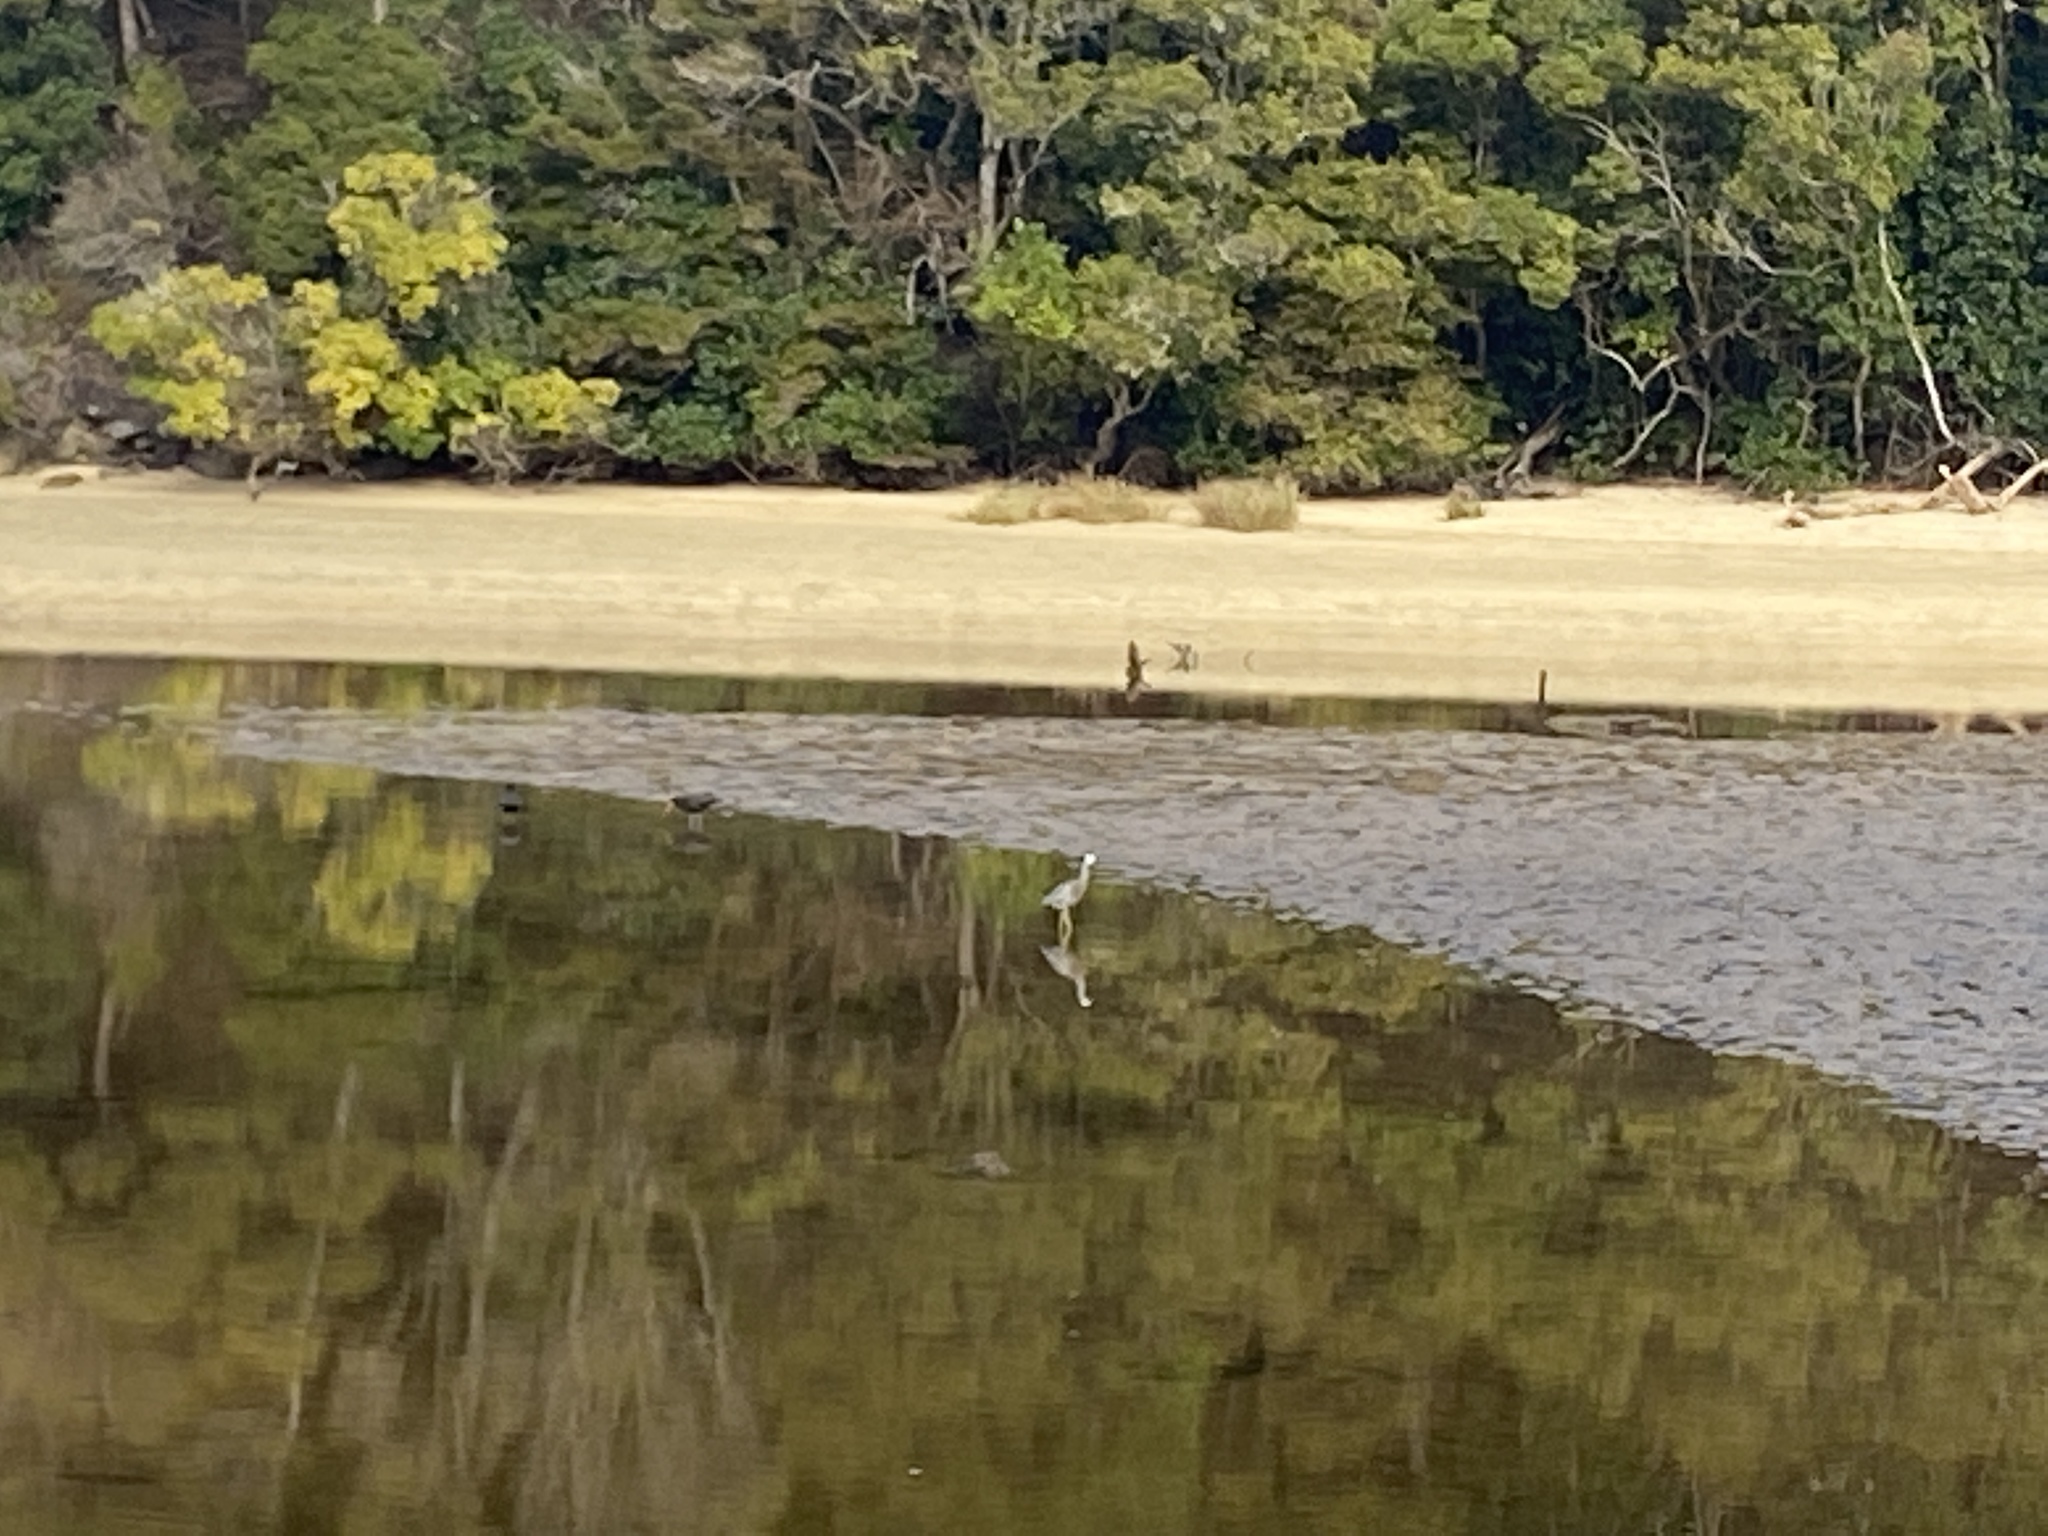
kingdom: Animalia
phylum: Chordata
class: Aves
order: Pelecaniformes
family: Ardeidae
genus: Egretta
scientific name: Egretta novaehollandiae
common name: White-faced heron
